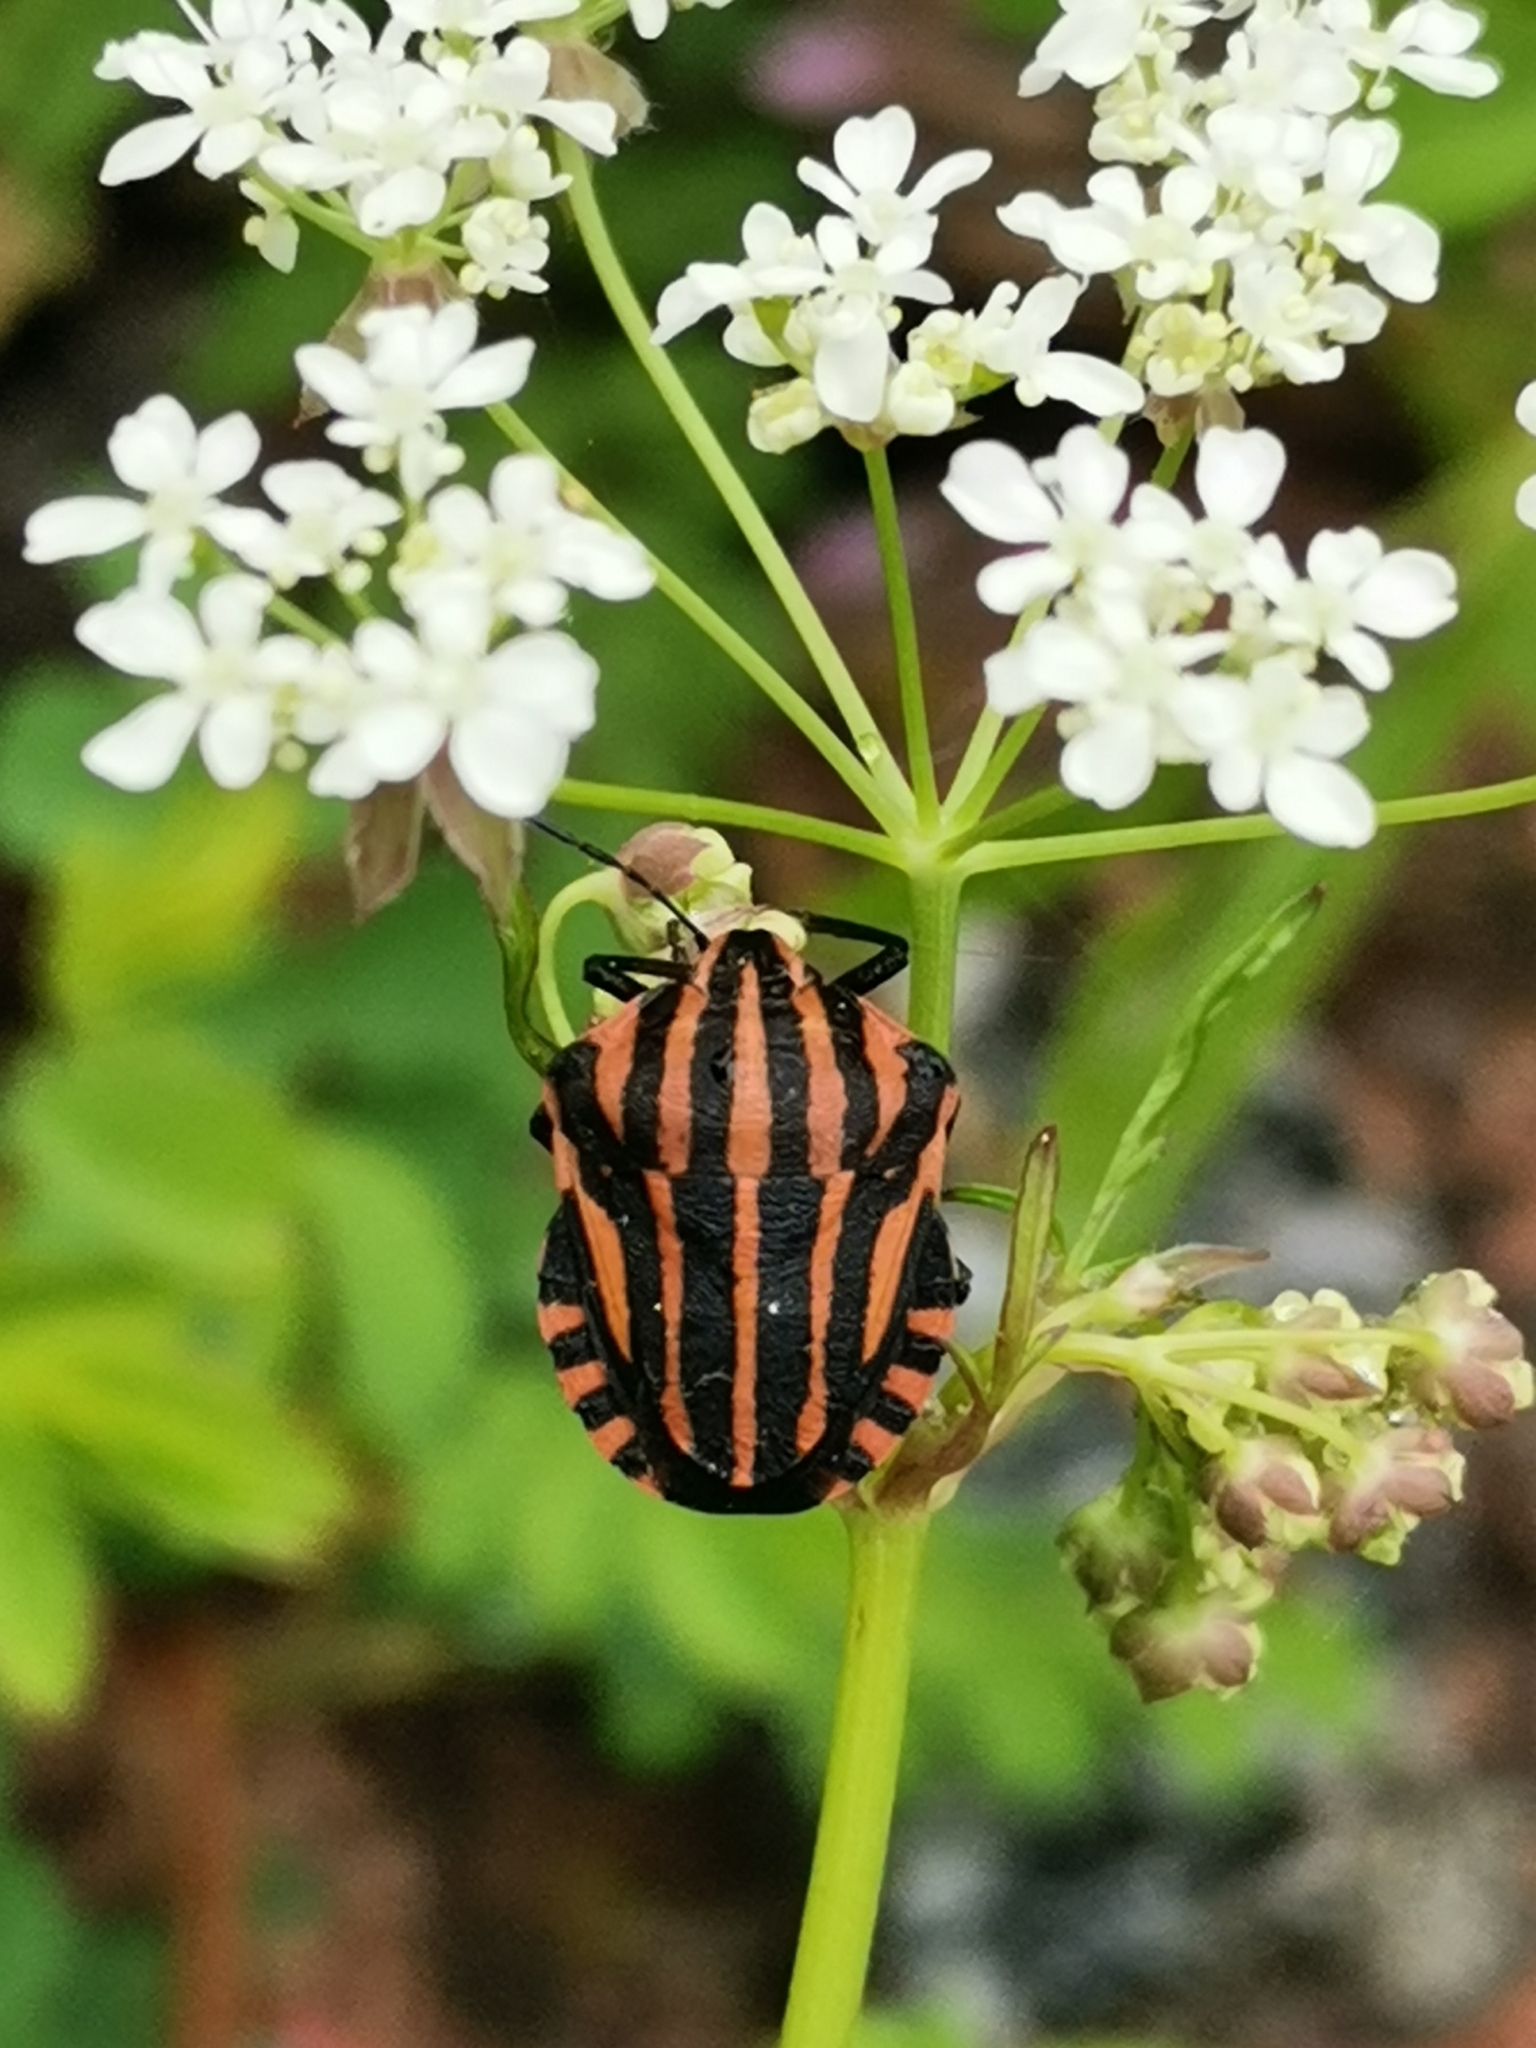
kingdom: Animalia
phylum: Arthropoda
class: Insecta
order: Hemiptera
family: Pentatomidae
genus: Graphosoma
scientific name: Graphosoma italicum
